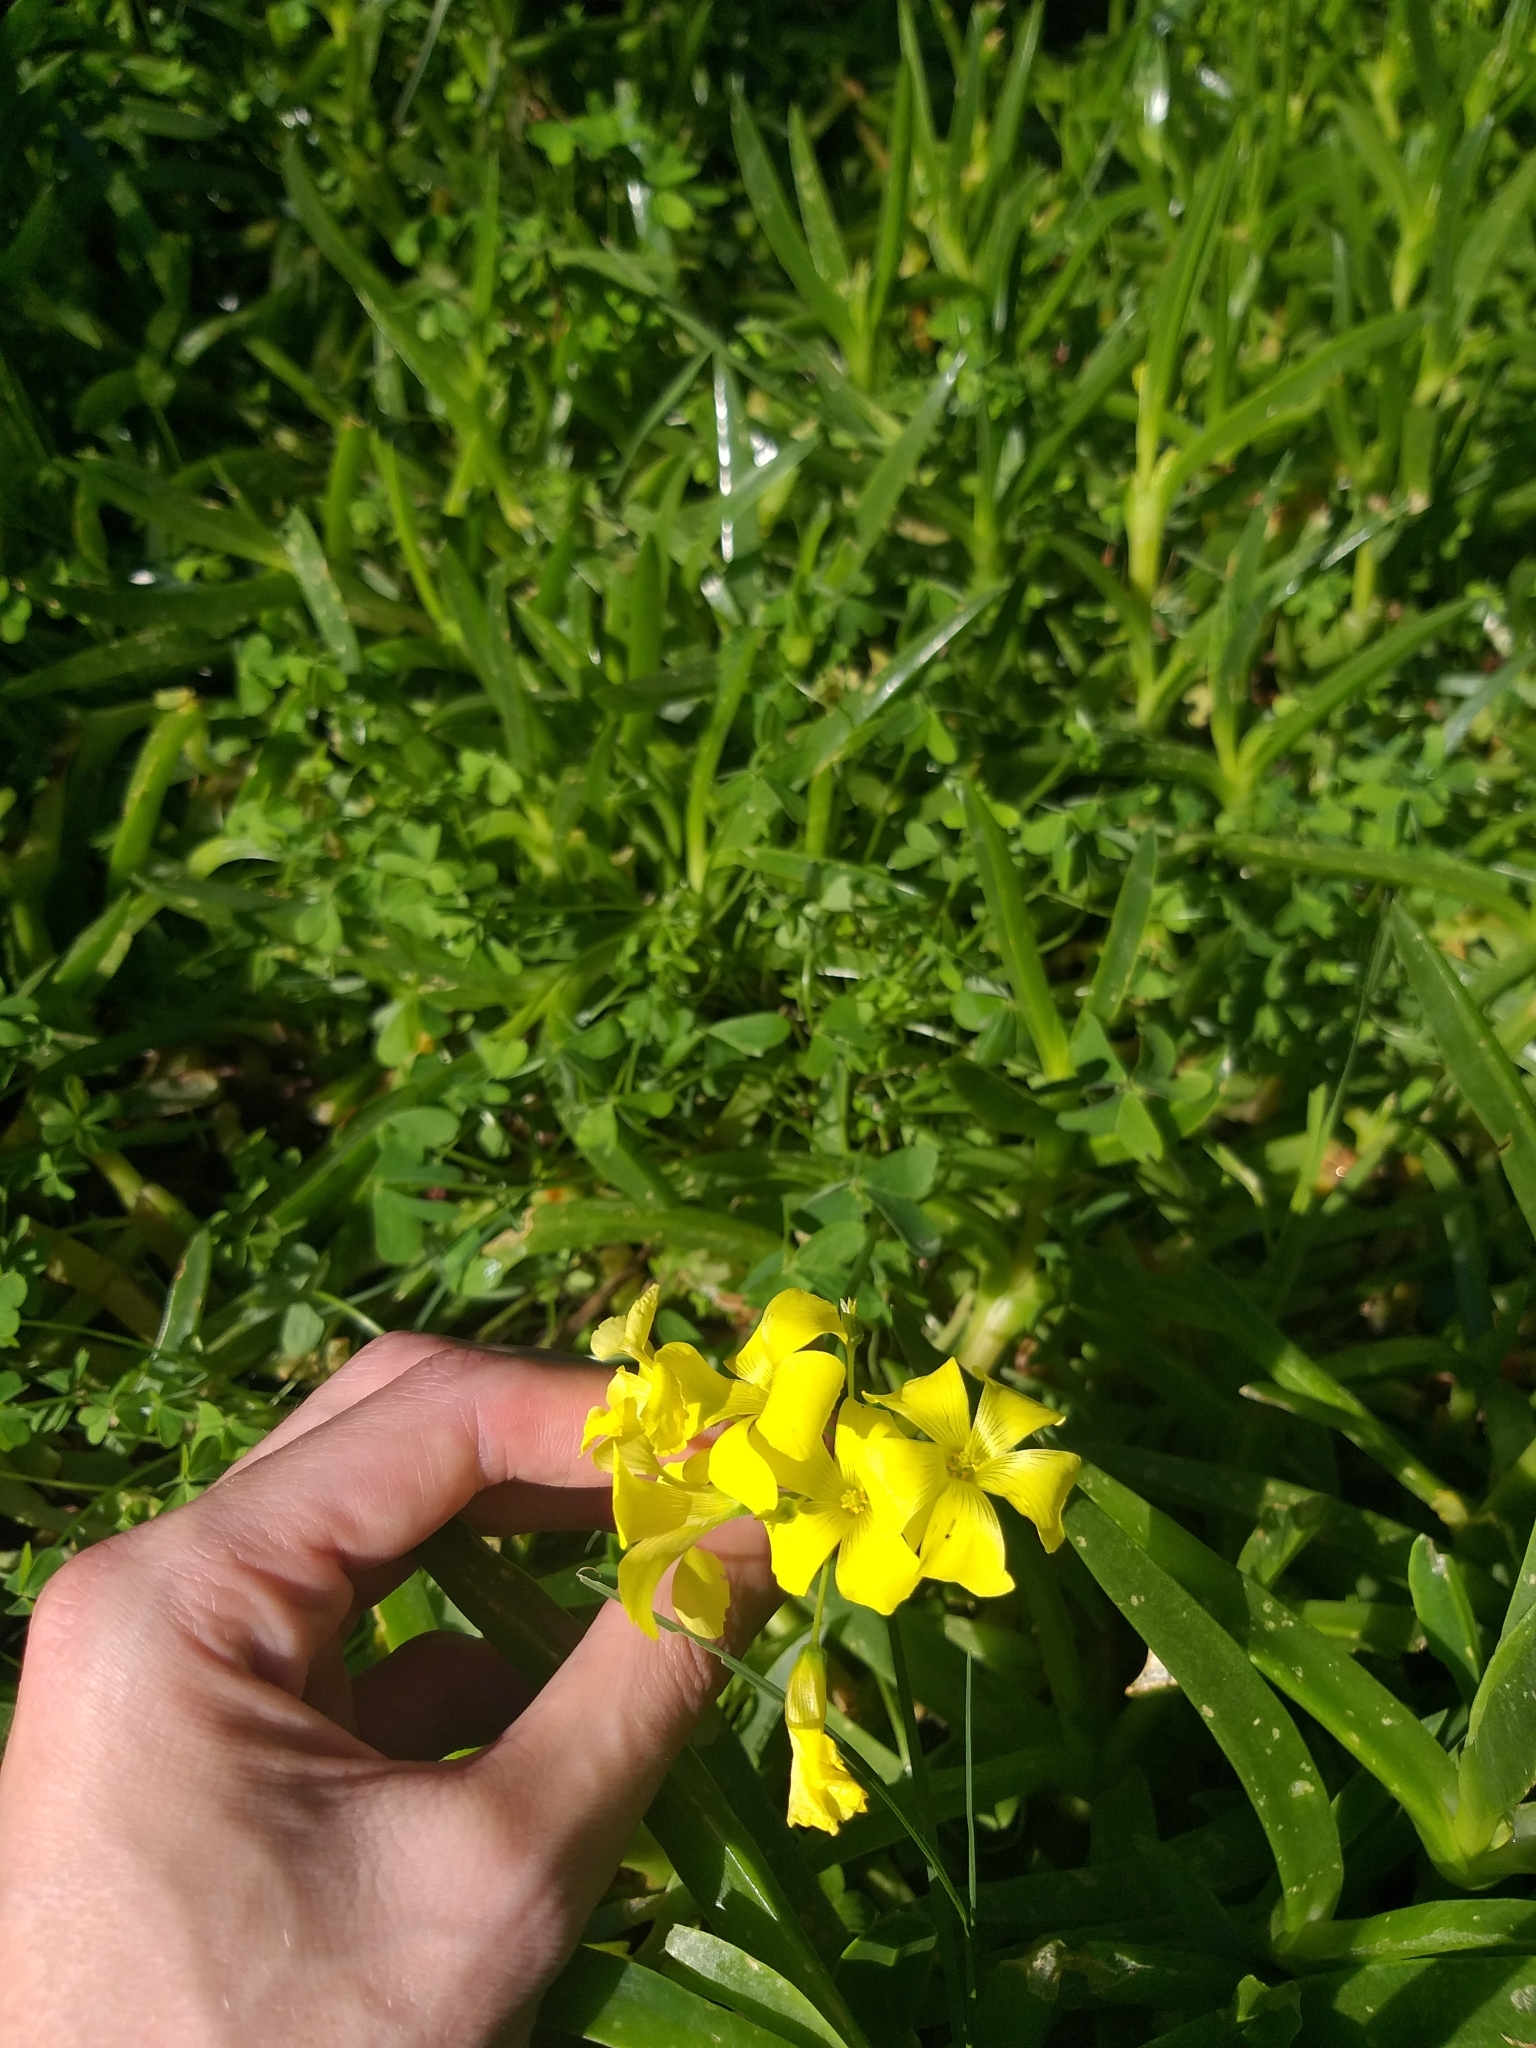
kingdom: Plantae
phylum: Tracheophyta
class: Magnoliopsida
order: Oxalidales
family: Oxalidaceae
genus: Oxalis
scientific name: Oxalis pes-caprae
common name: Bermuda-buttercup
